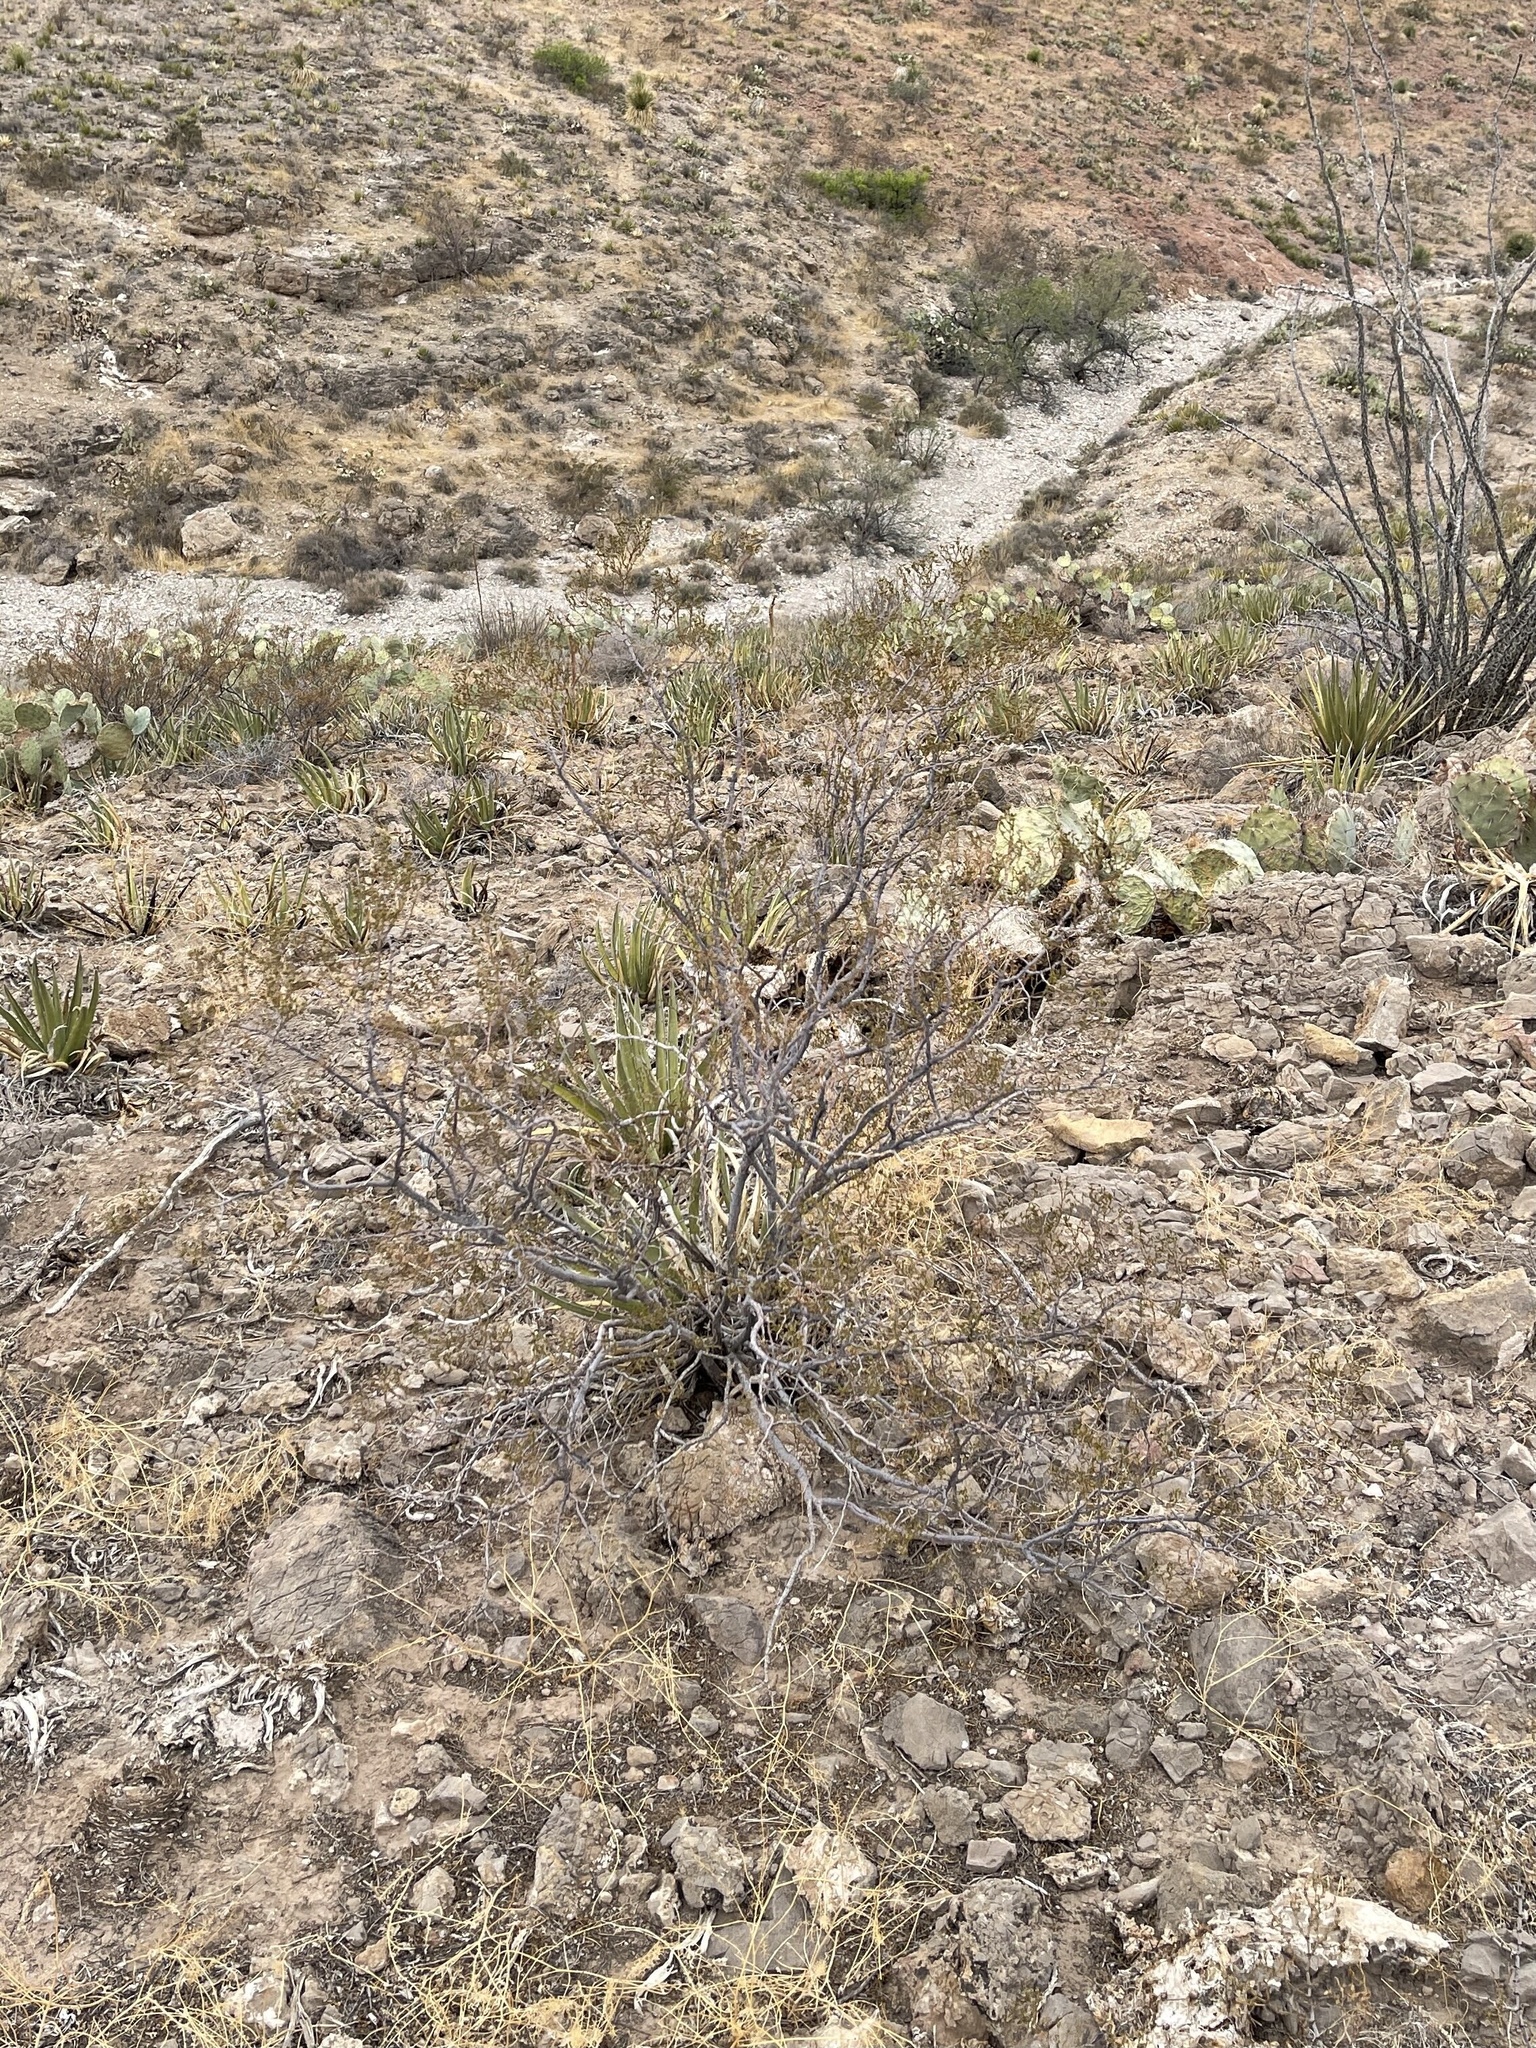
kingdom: Plantae
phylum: Tracheophyta
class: Magnoliopsida
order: Zygophyllales
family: Zygophyllaceae
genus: Larrea
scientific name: Larrea tridentata
